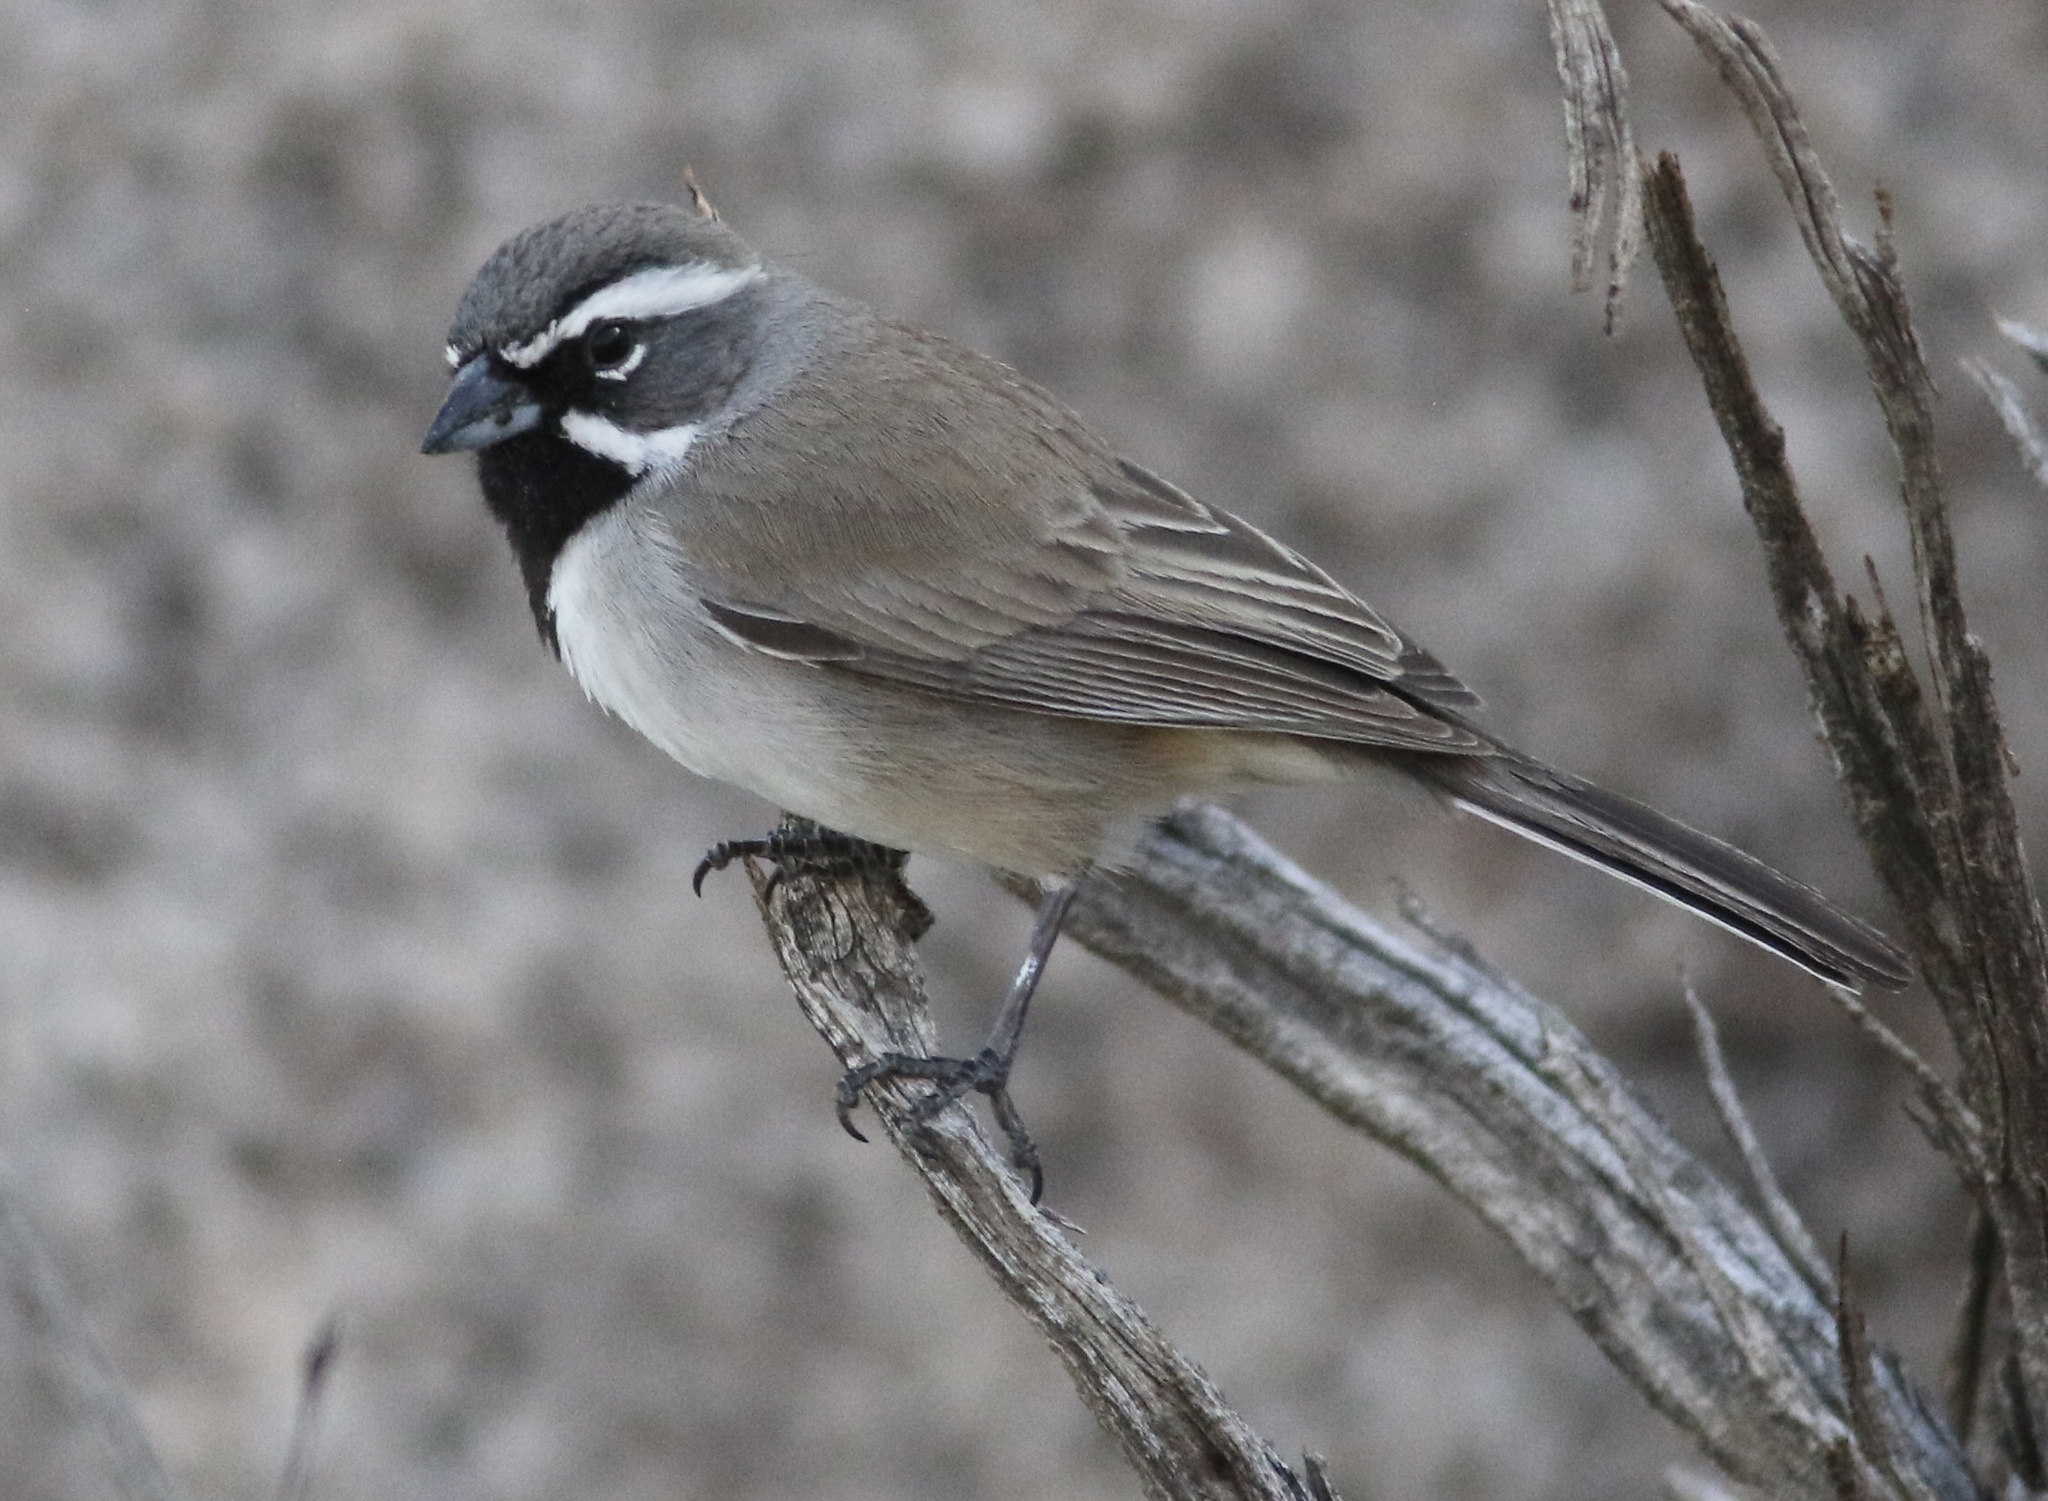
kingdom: Animalia
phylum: Chordata
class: Aves
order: Passeriformes
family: Passerellidae
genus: Amphispiza
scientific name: Amphispiza bilineata
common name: Black-throated sparrow
